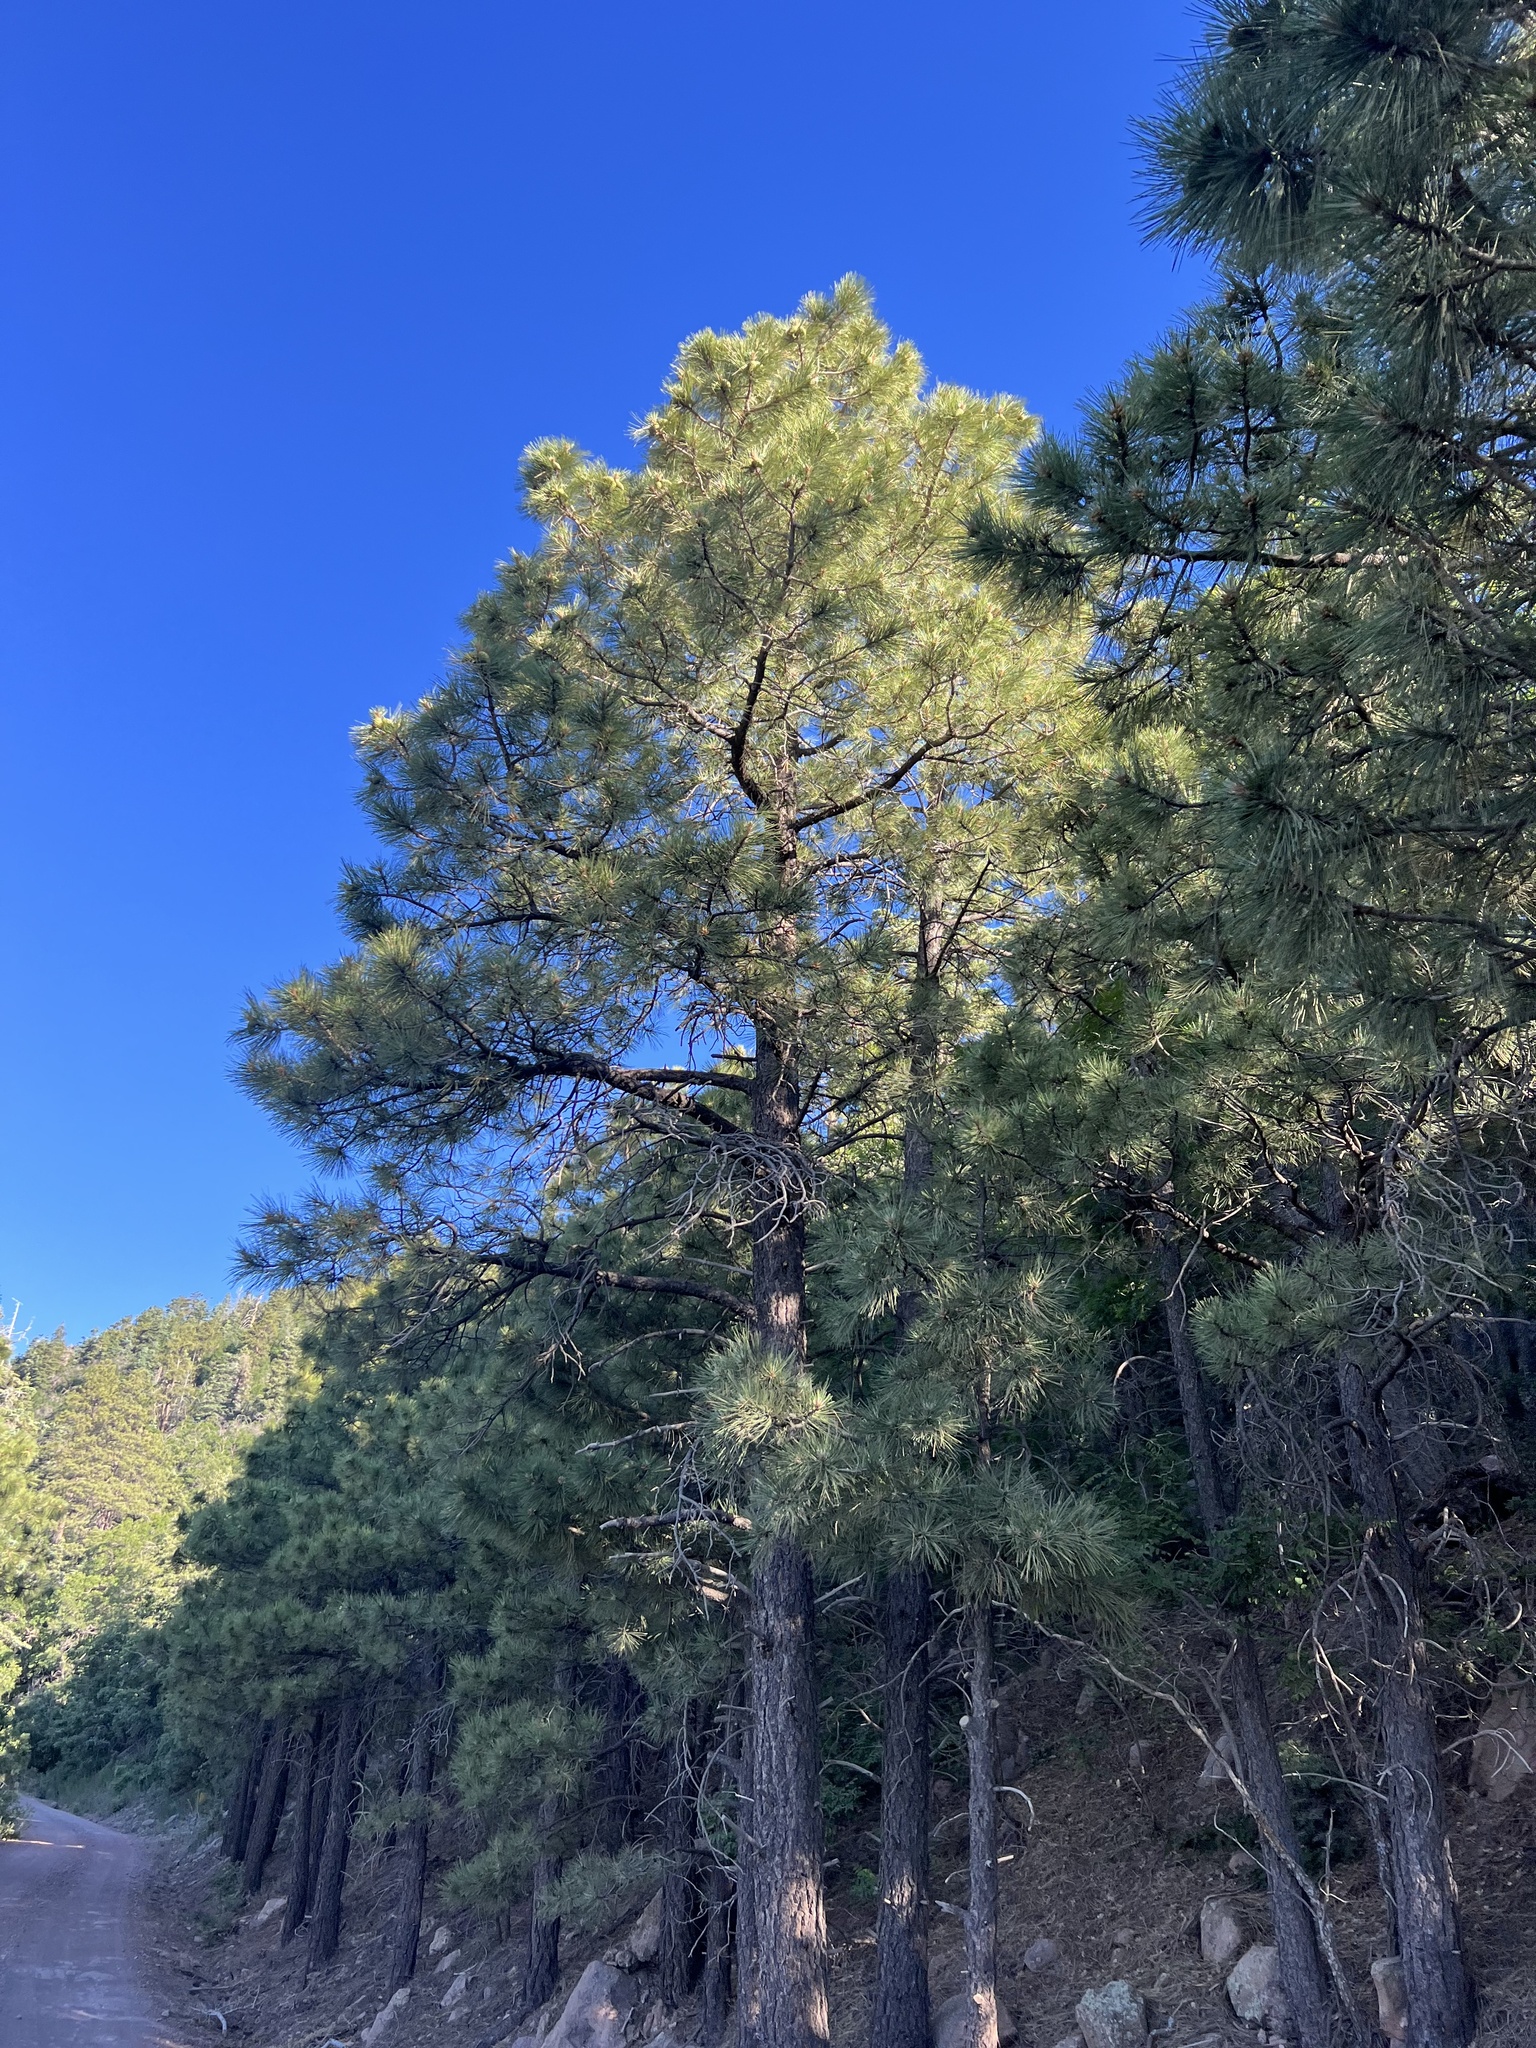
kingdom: Plantae
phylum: Tracheophyta
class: Pinopsida
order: Pinales
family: Pinaceae
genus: Pinus
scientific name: Pinus ponderosa
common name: Western yellow-pine
